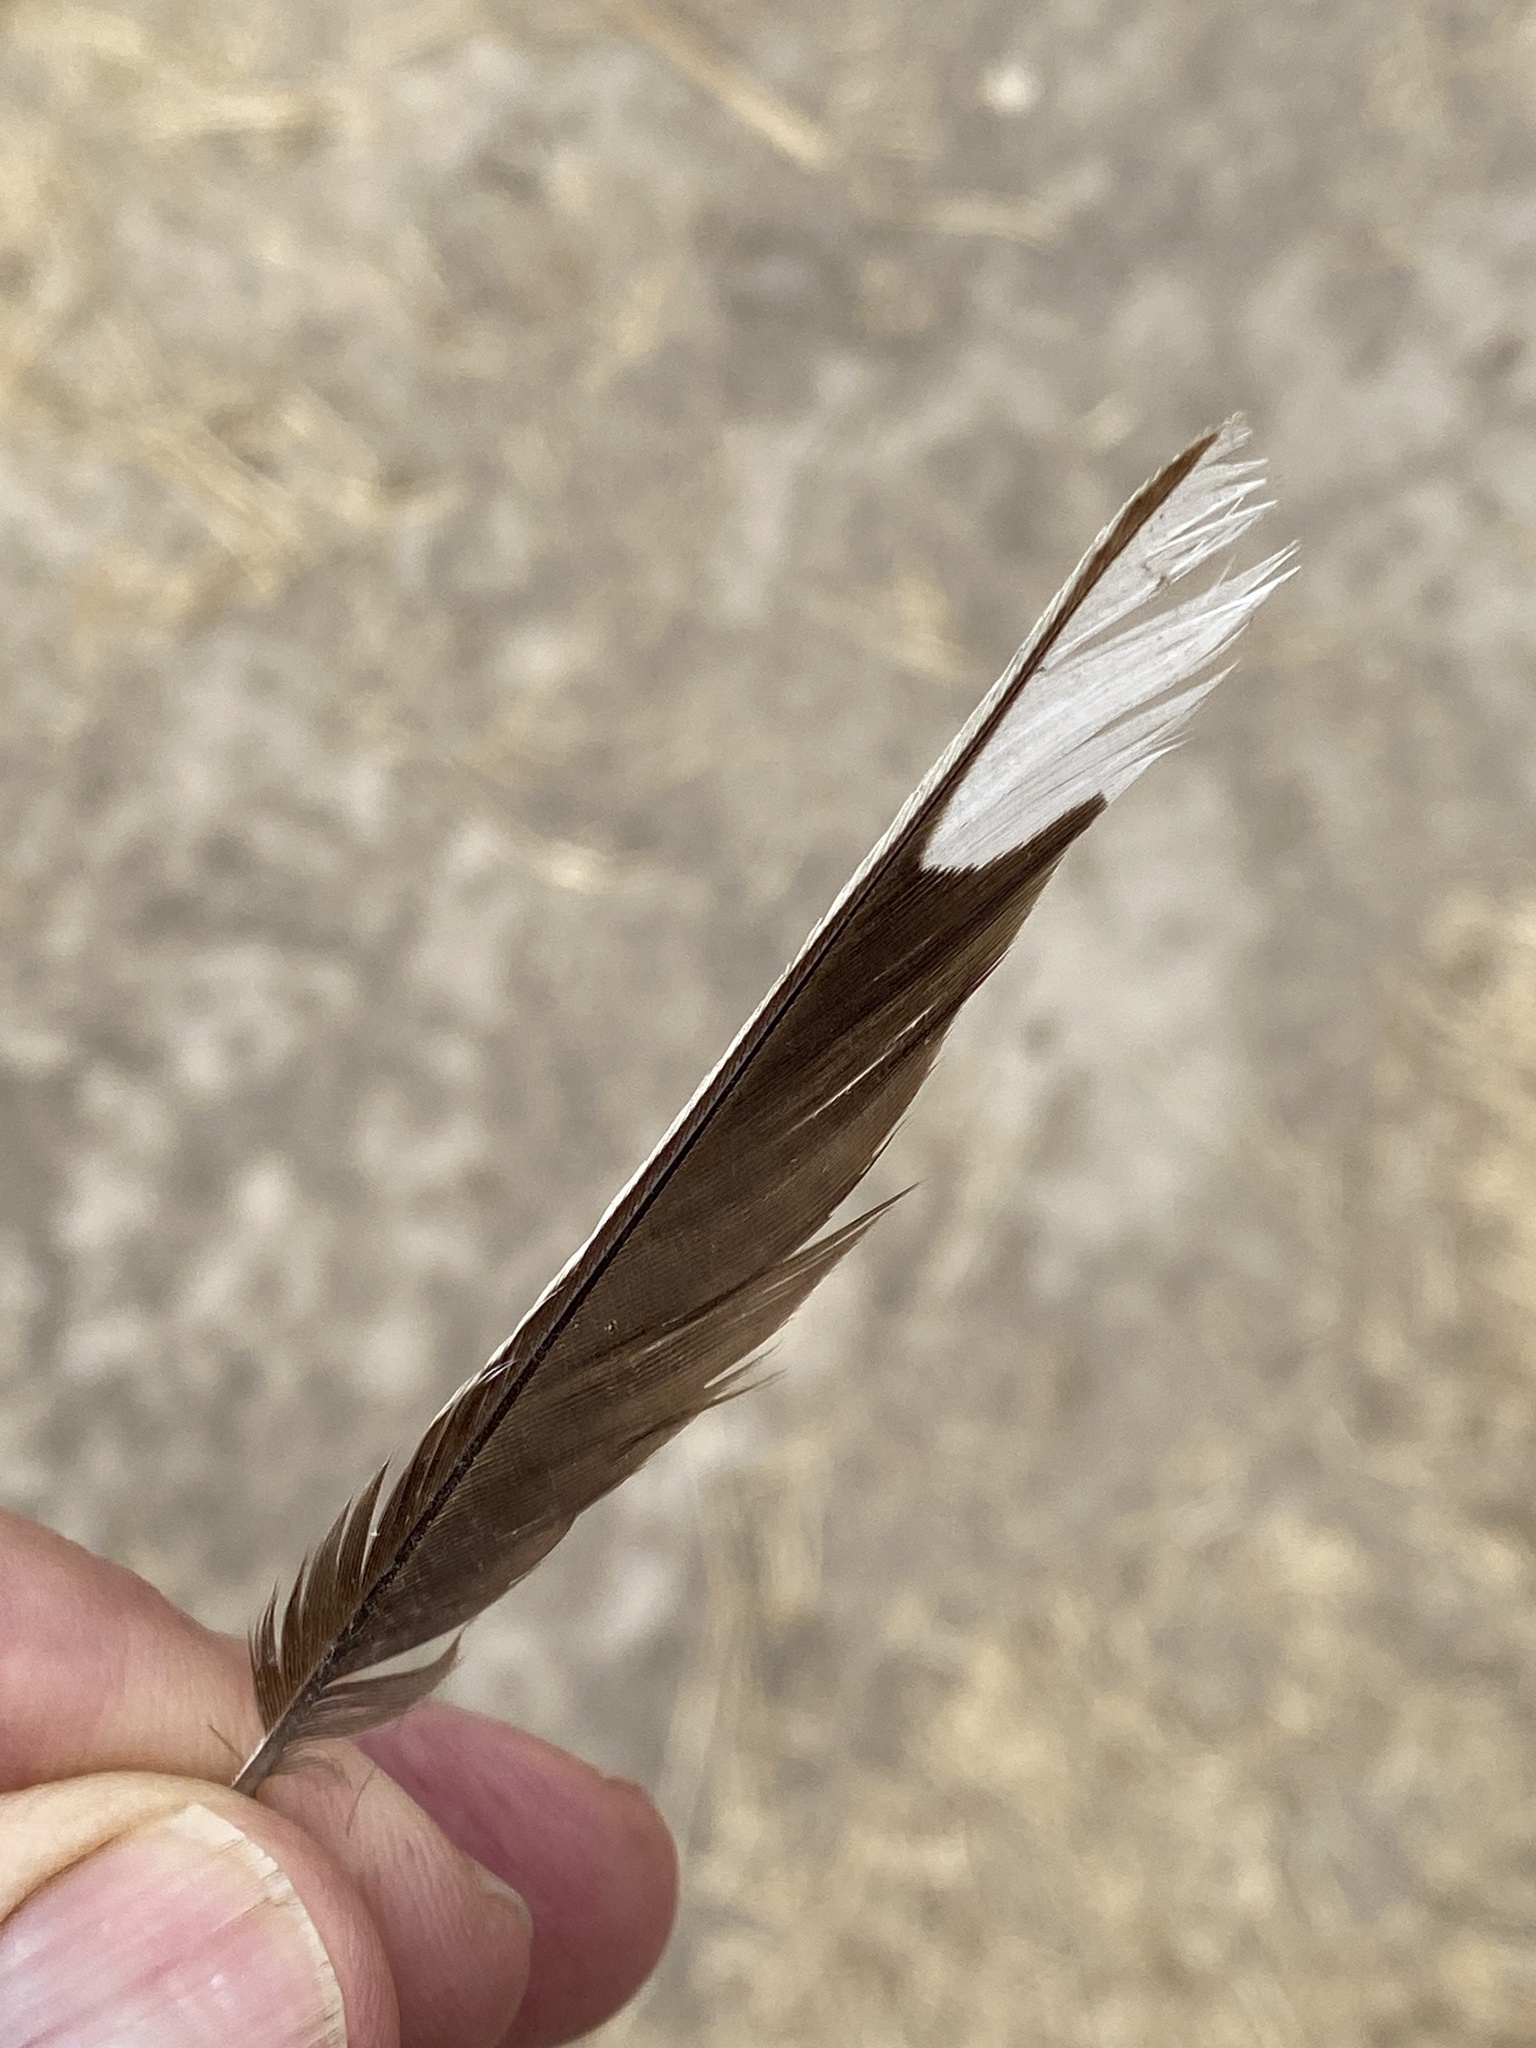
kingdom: Animalia
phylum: Chordata
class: Aves
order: Passeriformes
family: Passerellidae
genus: Pipilo
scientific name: Pipilo maculatus
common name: Spotted towhee
